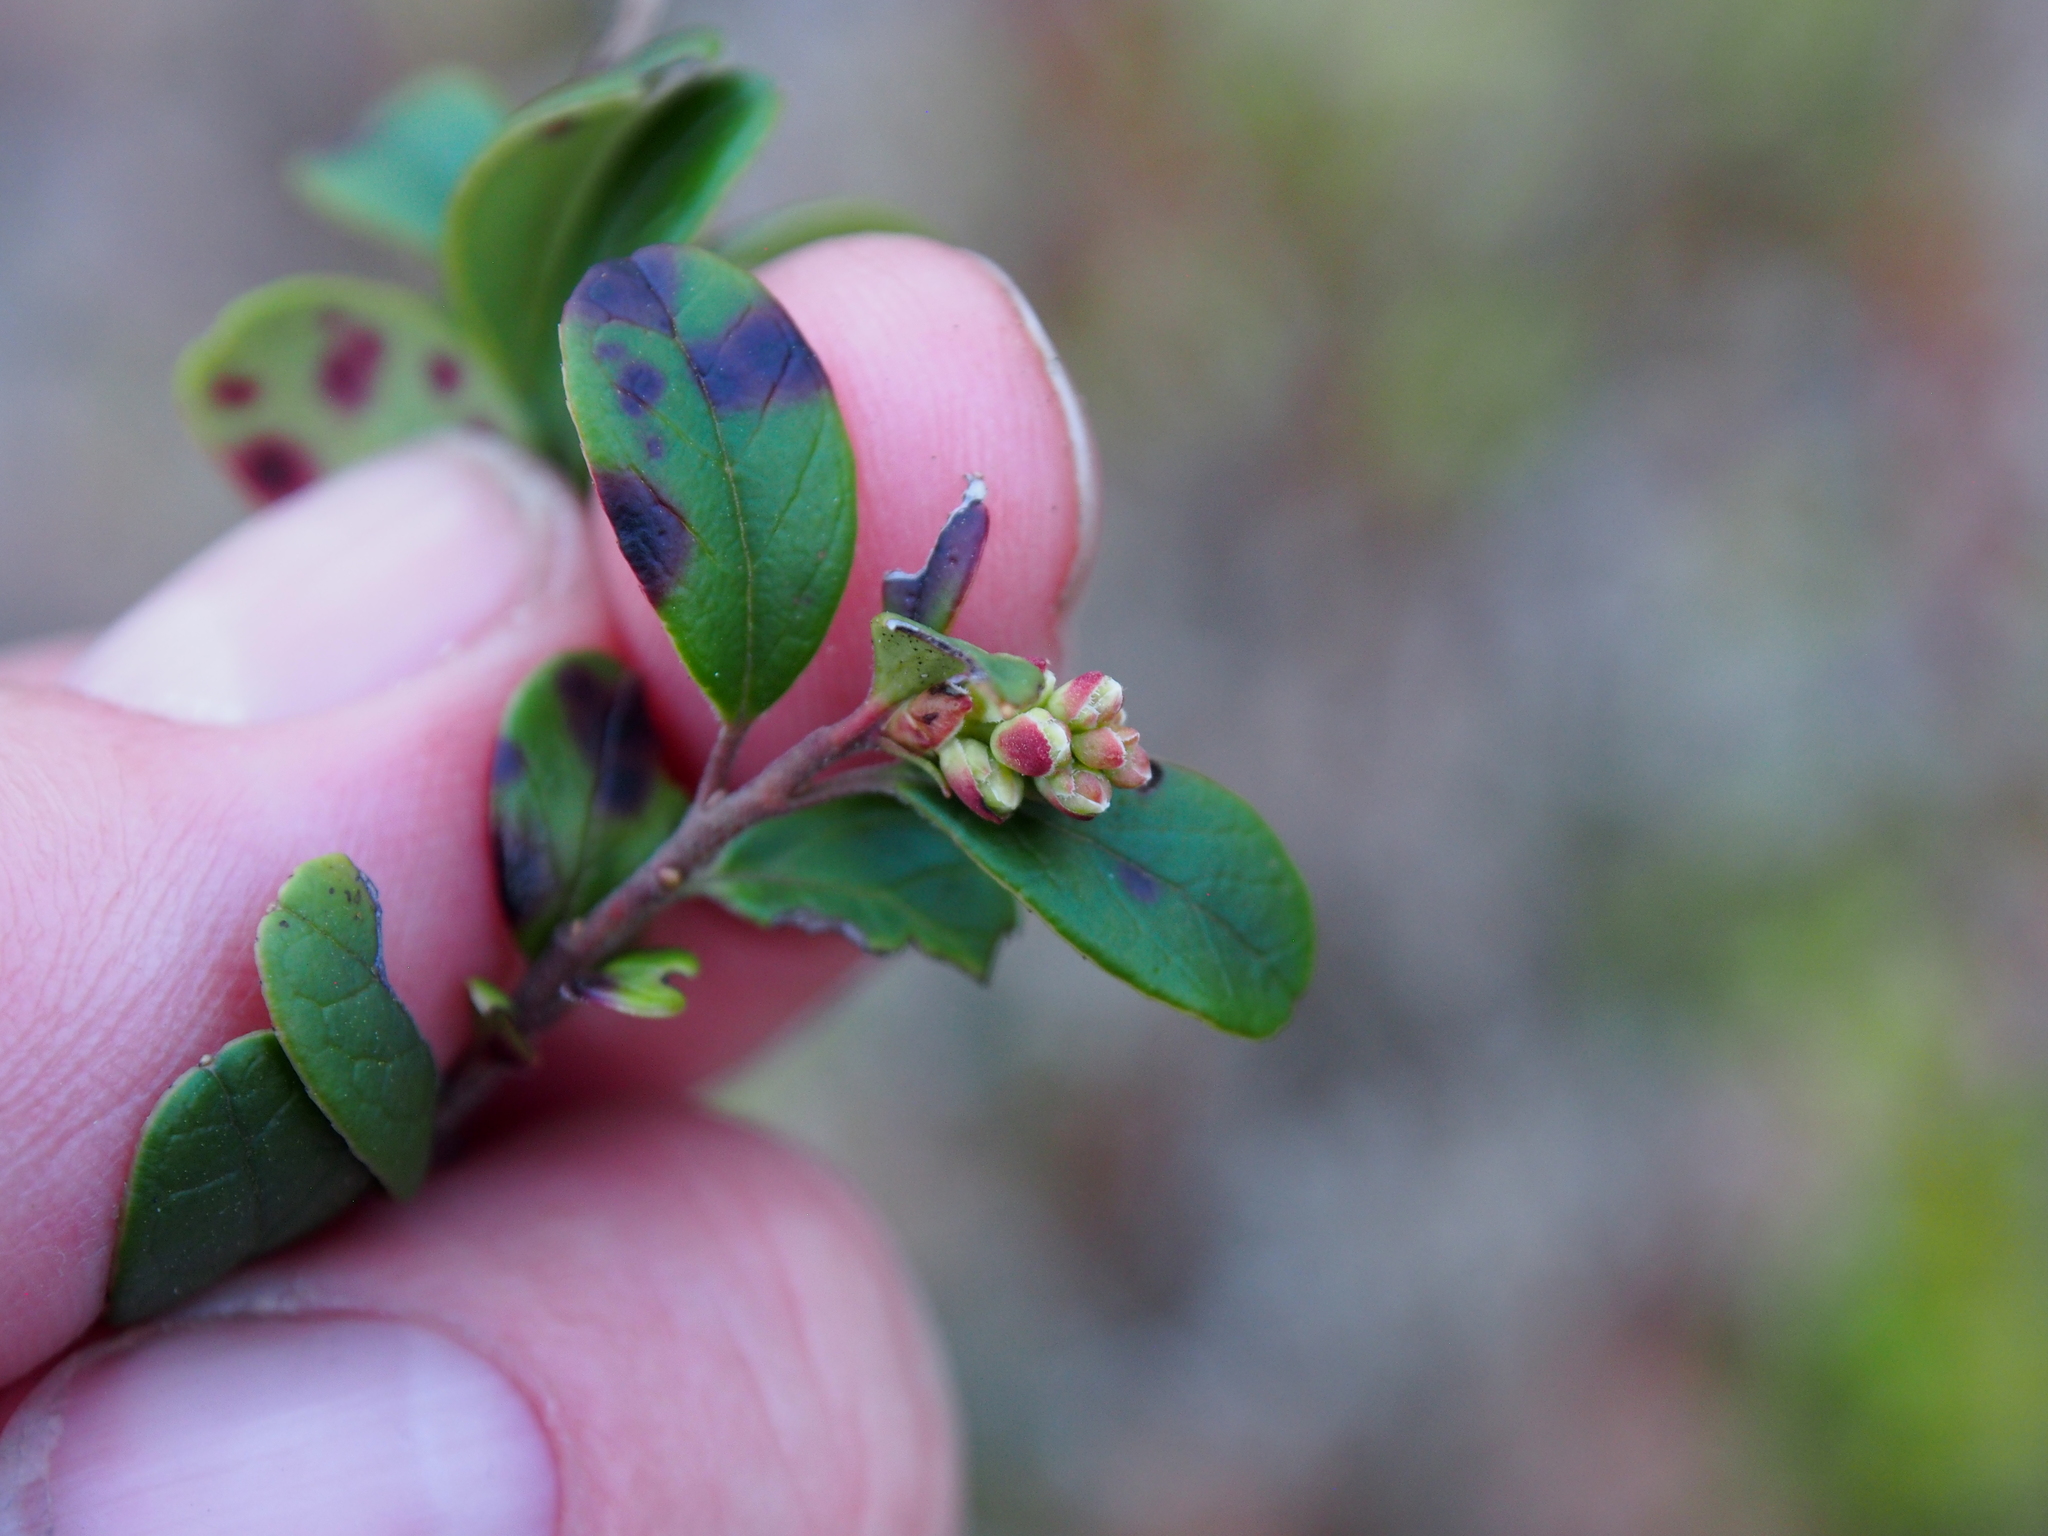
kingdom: Plantae
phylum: Tracheophyta
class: Magnoliopsida
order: Ericales
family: Ericaceae
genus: Vaccinium
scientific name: Vaccinium vitis-idaea
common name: Cowberry
